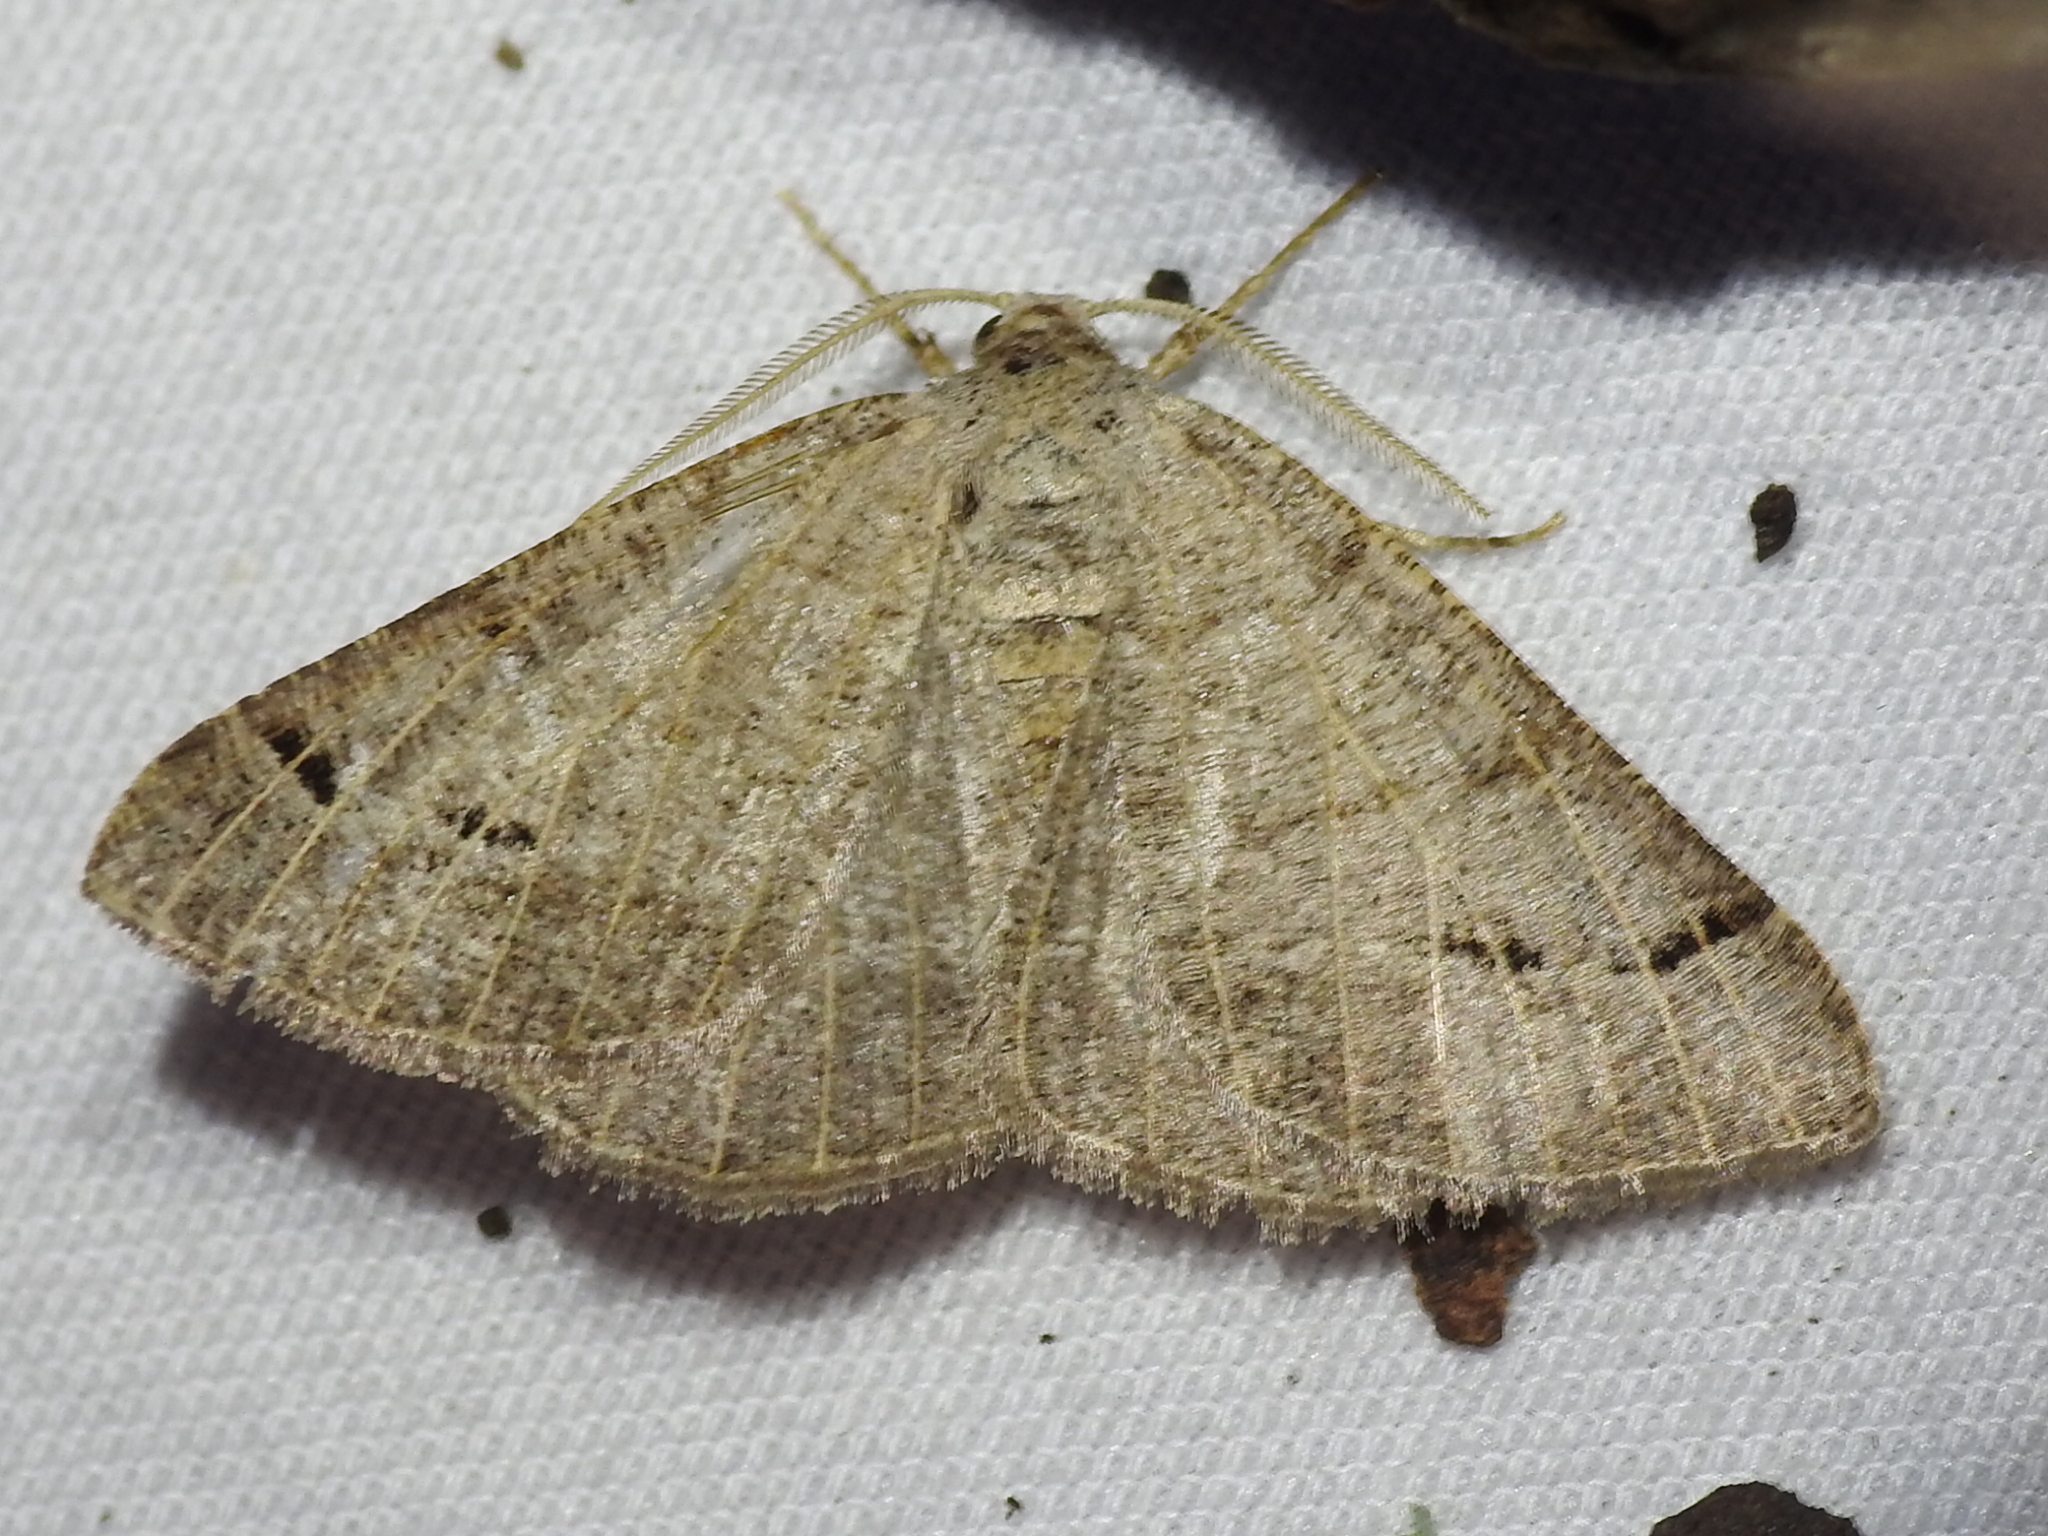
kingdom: Animalia
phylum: Arthropoda
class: Insecta
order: Lepidoptera
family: Geometridae
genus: Isturgia
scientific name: Isturgia dislocaria
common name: Pale-viened enconista
